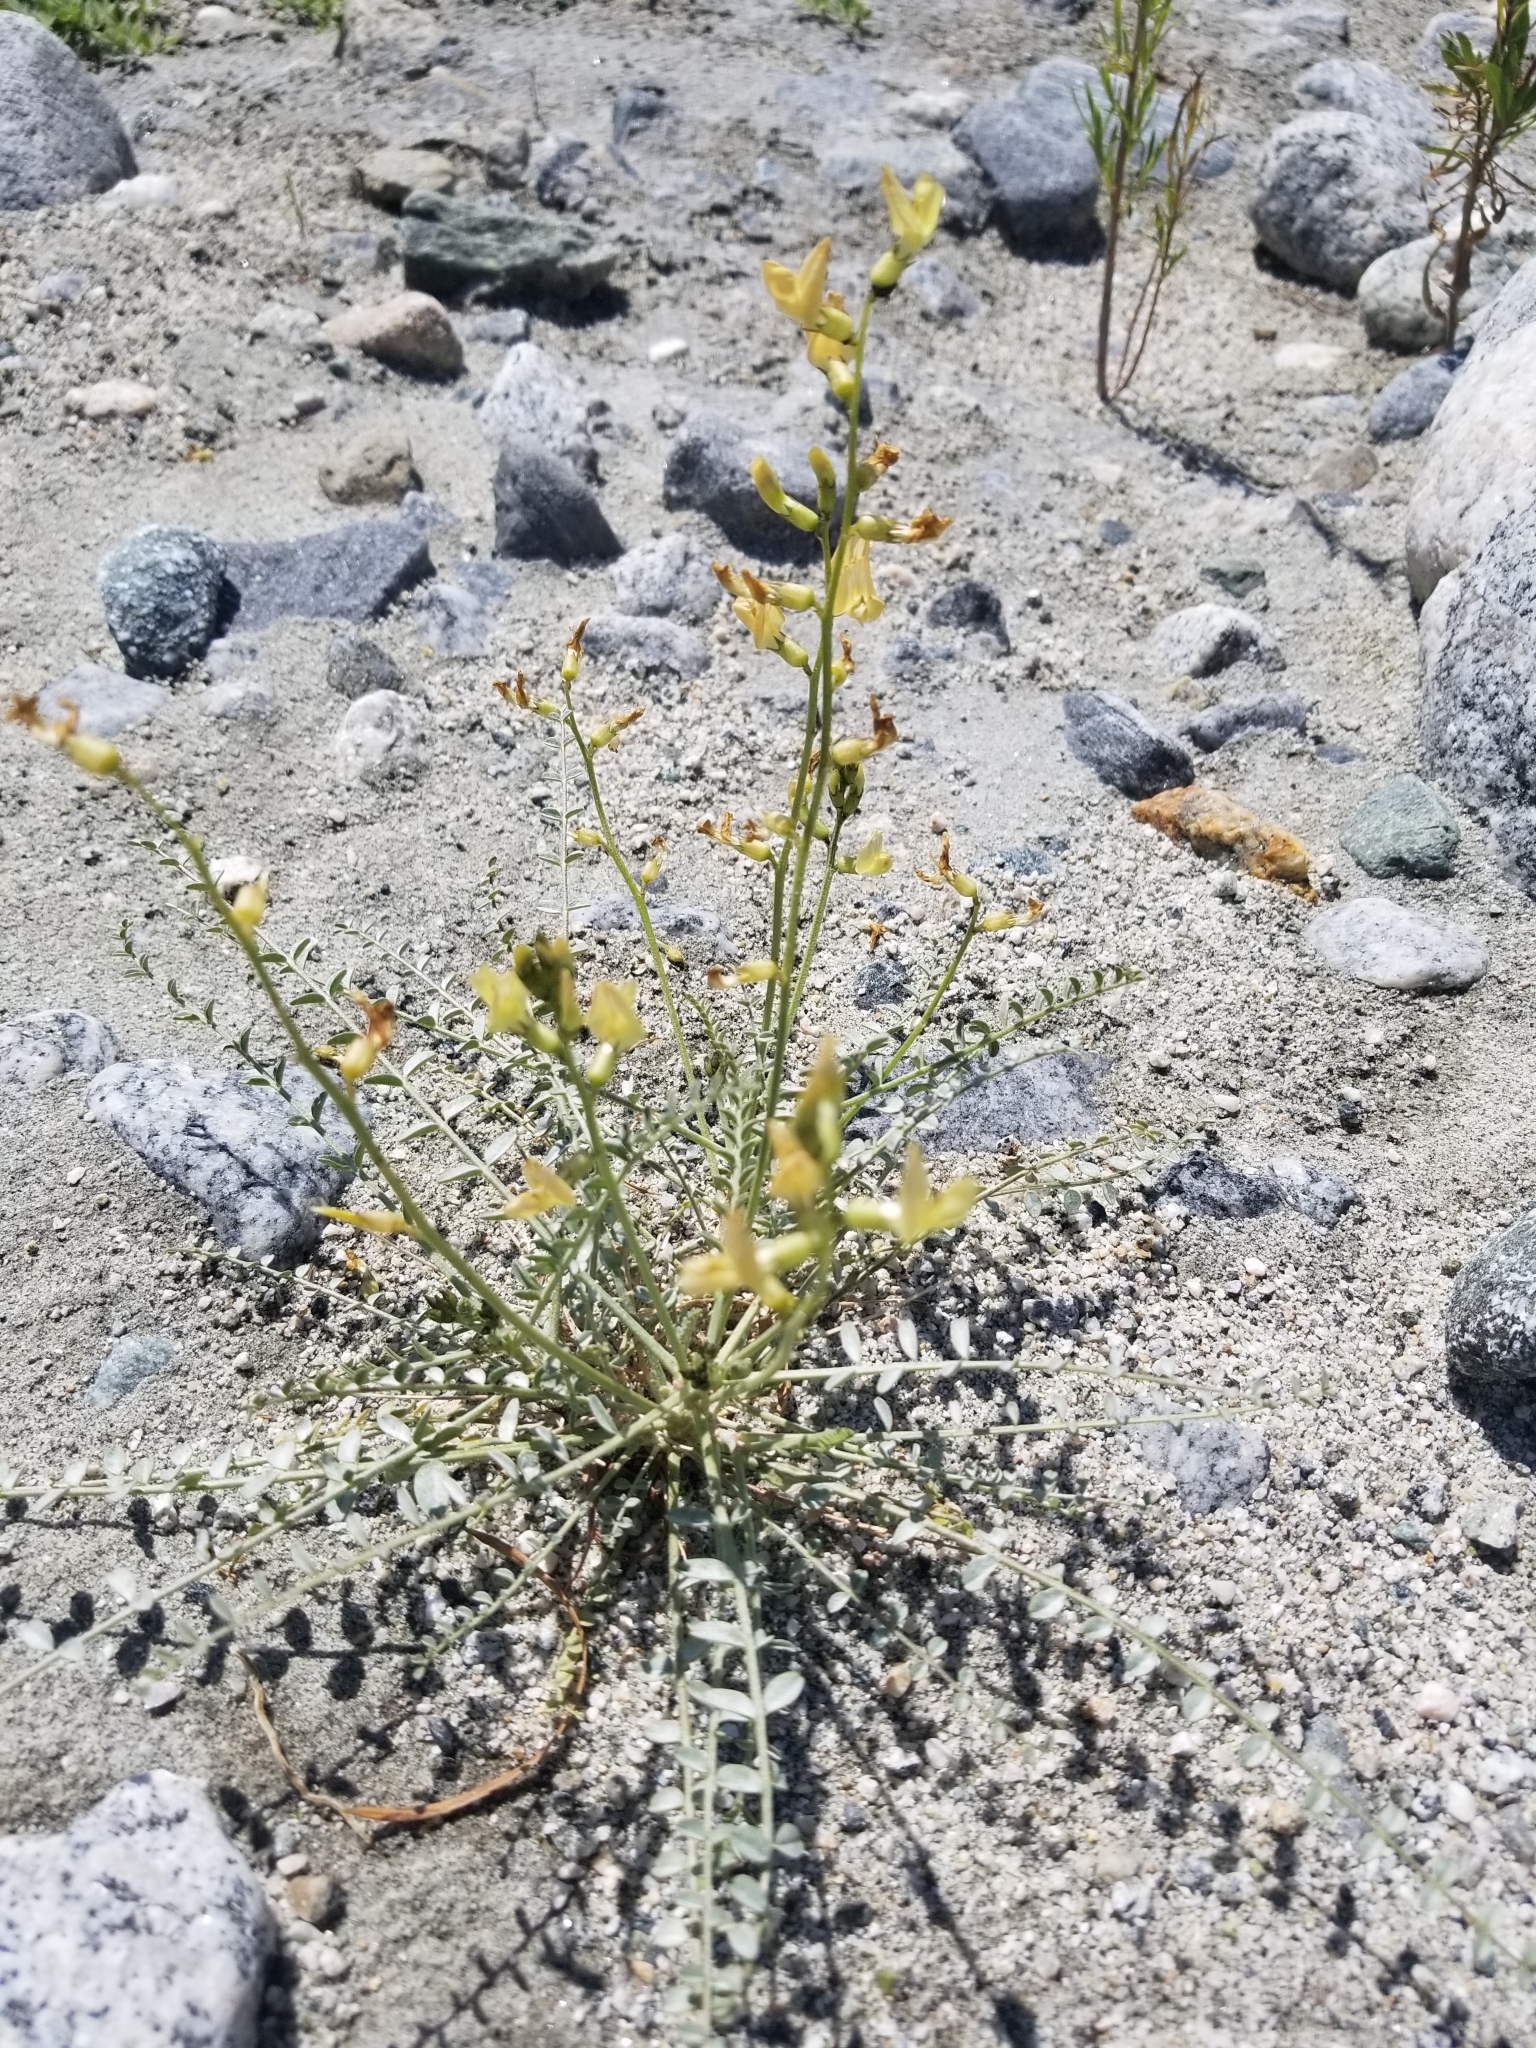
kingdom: Plantae
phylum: Tracheophyta
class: Magnoliopsida
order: Fabales
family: Fabaceae
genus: Astragalus
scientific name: Astragalus tricarinatus
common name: Triple-rib milk-vetch
